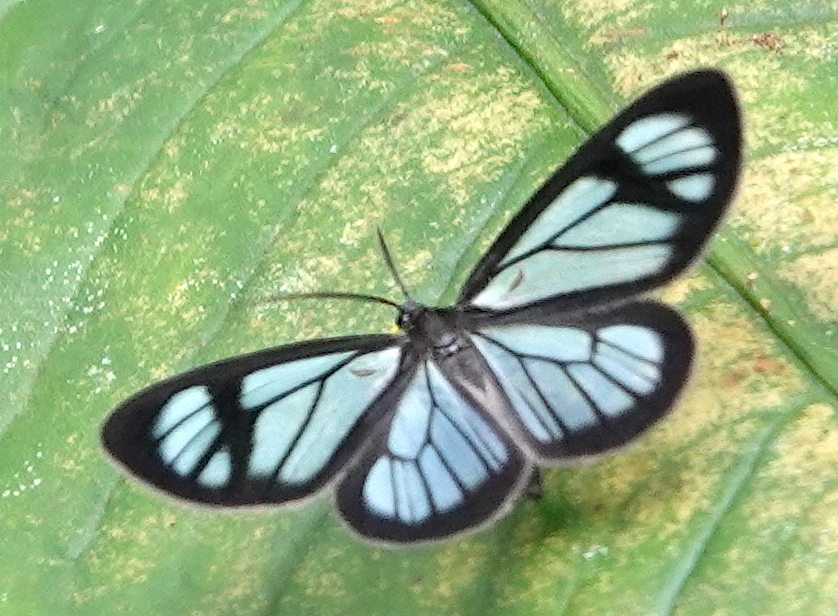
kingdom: Animalia
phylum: Arthropoda
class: Insecta
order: Lepidoptera
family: Geometridae
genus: Locha
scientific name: Locha hyalina
